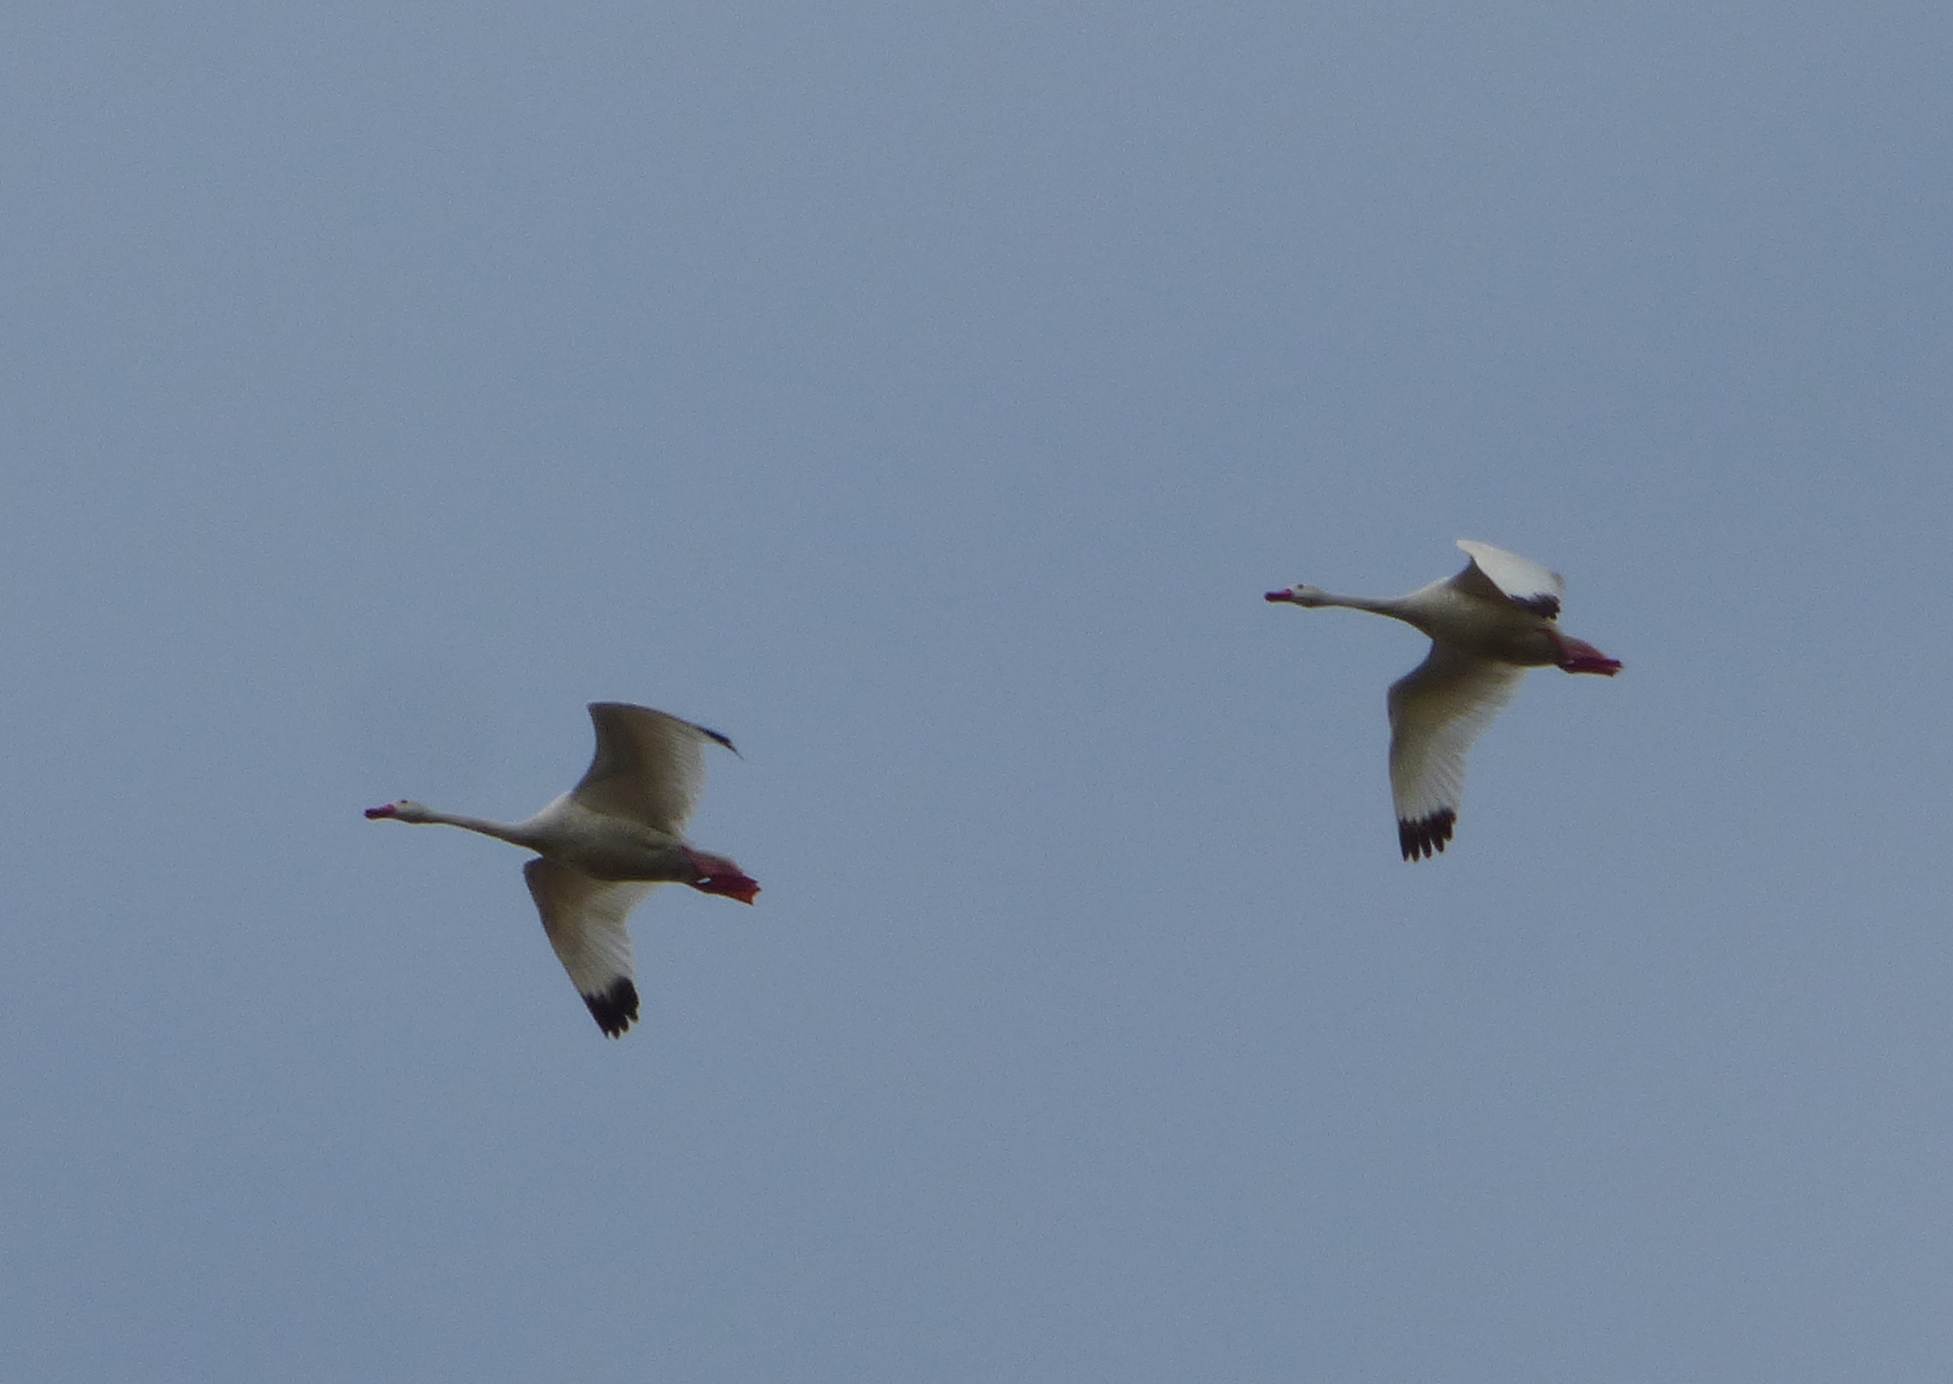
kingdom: Animalia
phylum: Chordata
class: Aves
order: Anseriformes
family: Anatidae
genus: Coscoroba
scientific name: Coscoroba coscoroba
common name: Coscoroba swan
